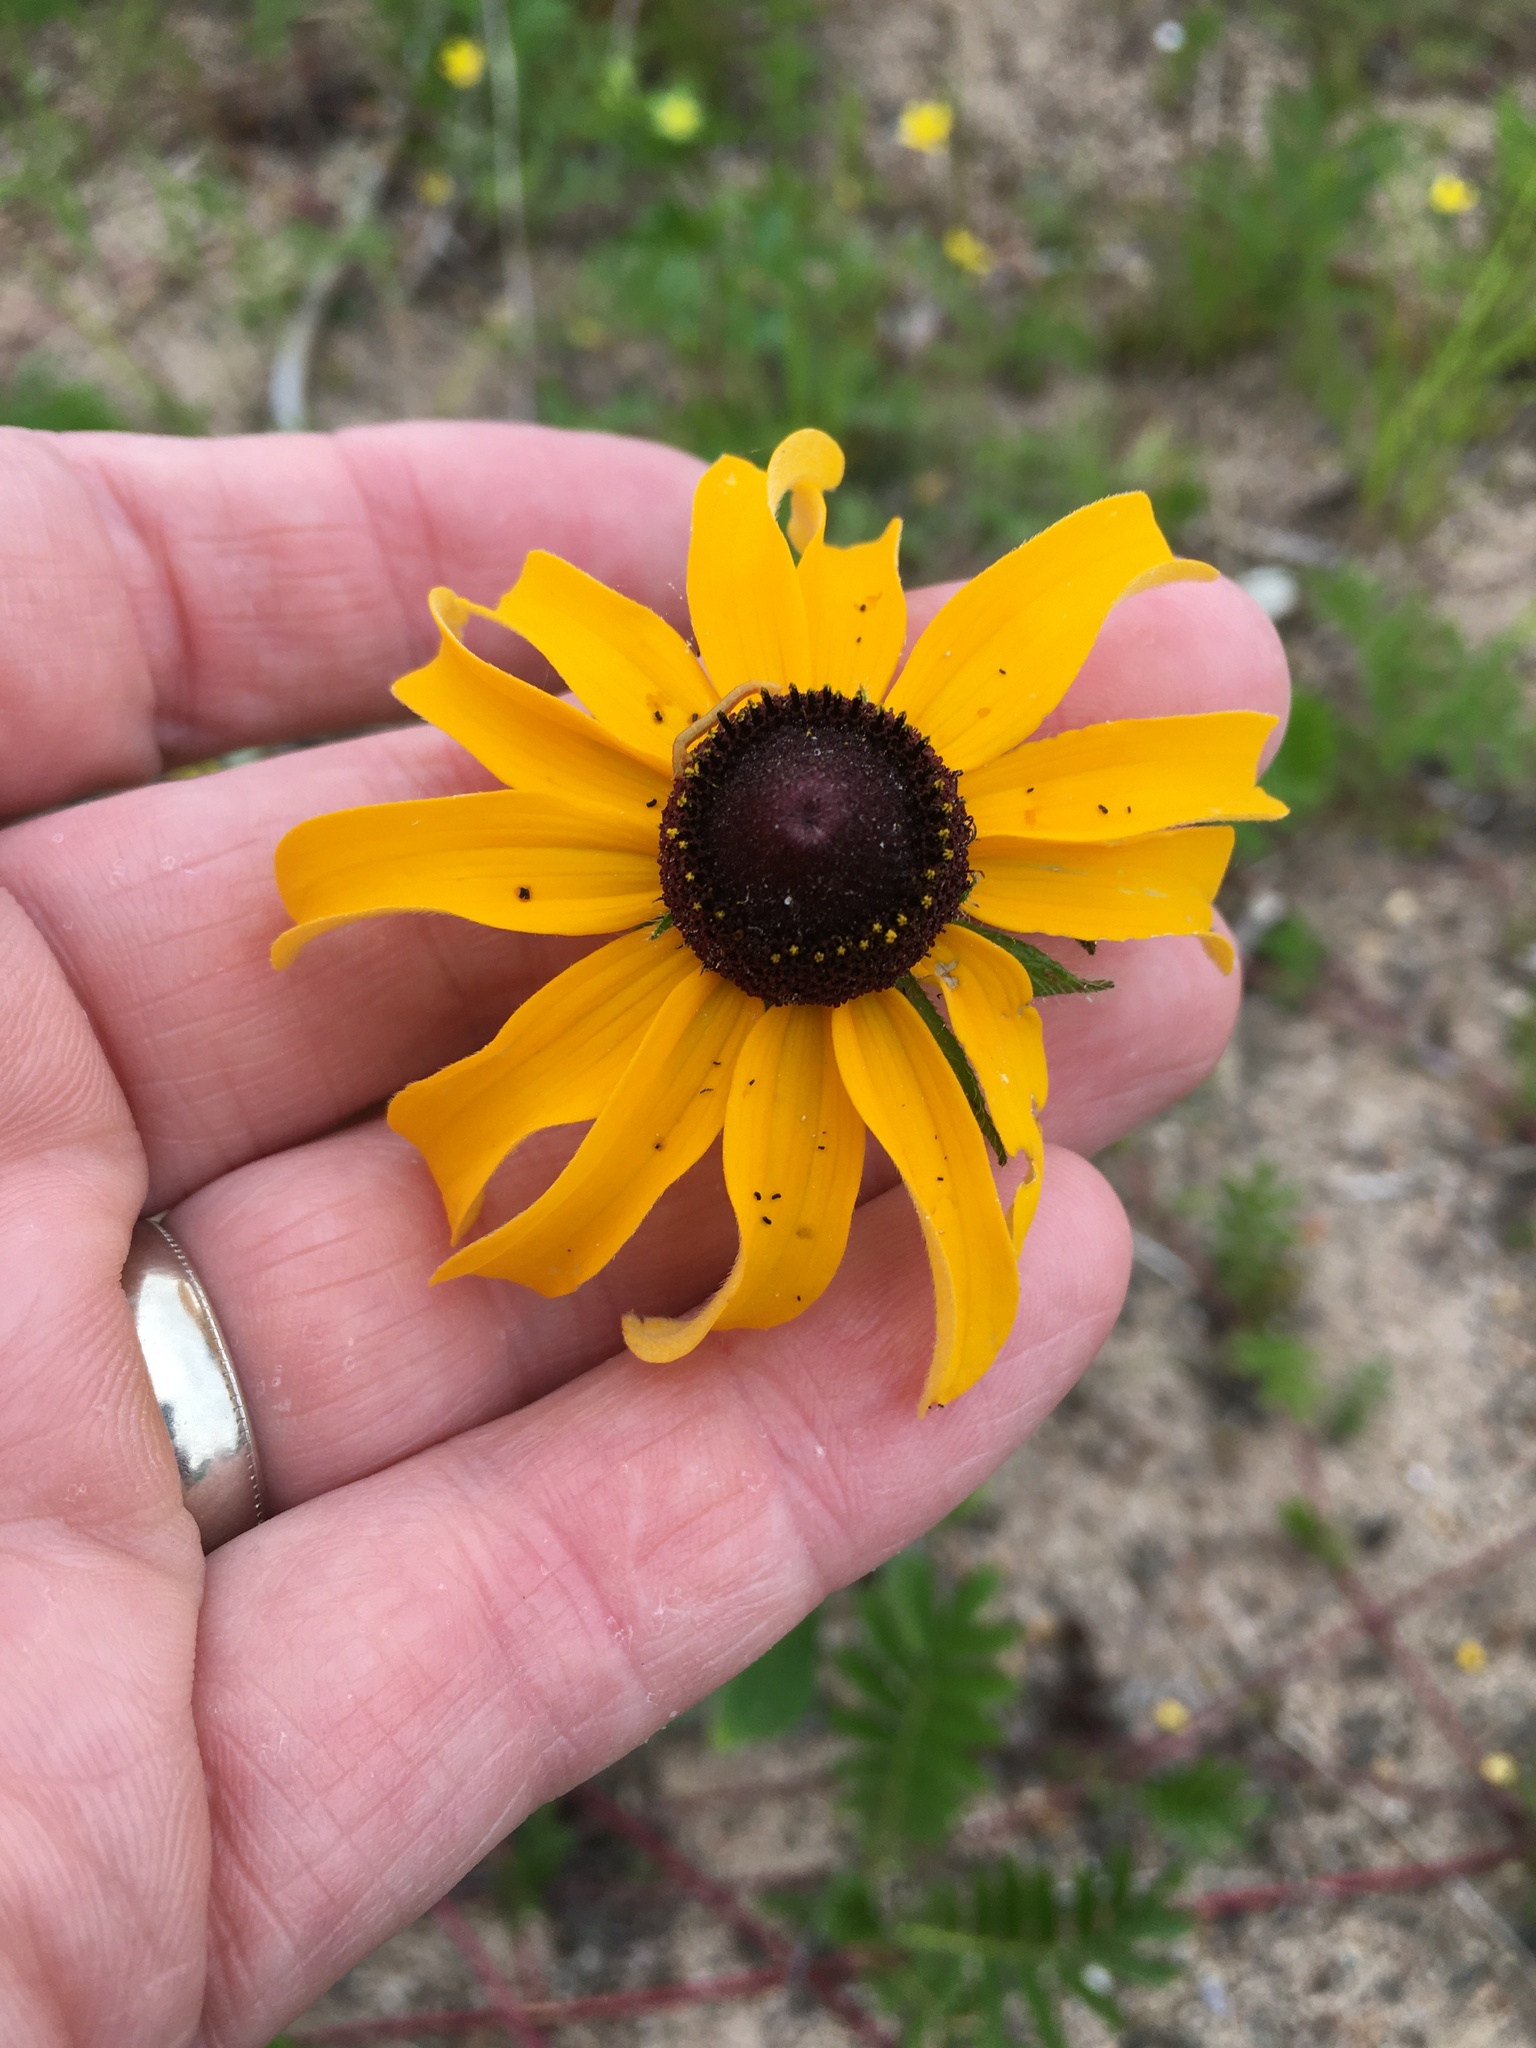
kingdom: Plantae
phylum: Tracheophyta
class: Magnoliopsida
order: Asterales
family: Asteraceae
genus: Rudbeckia
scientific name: Rudbeckia hirta
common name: Black-eyed-susan
